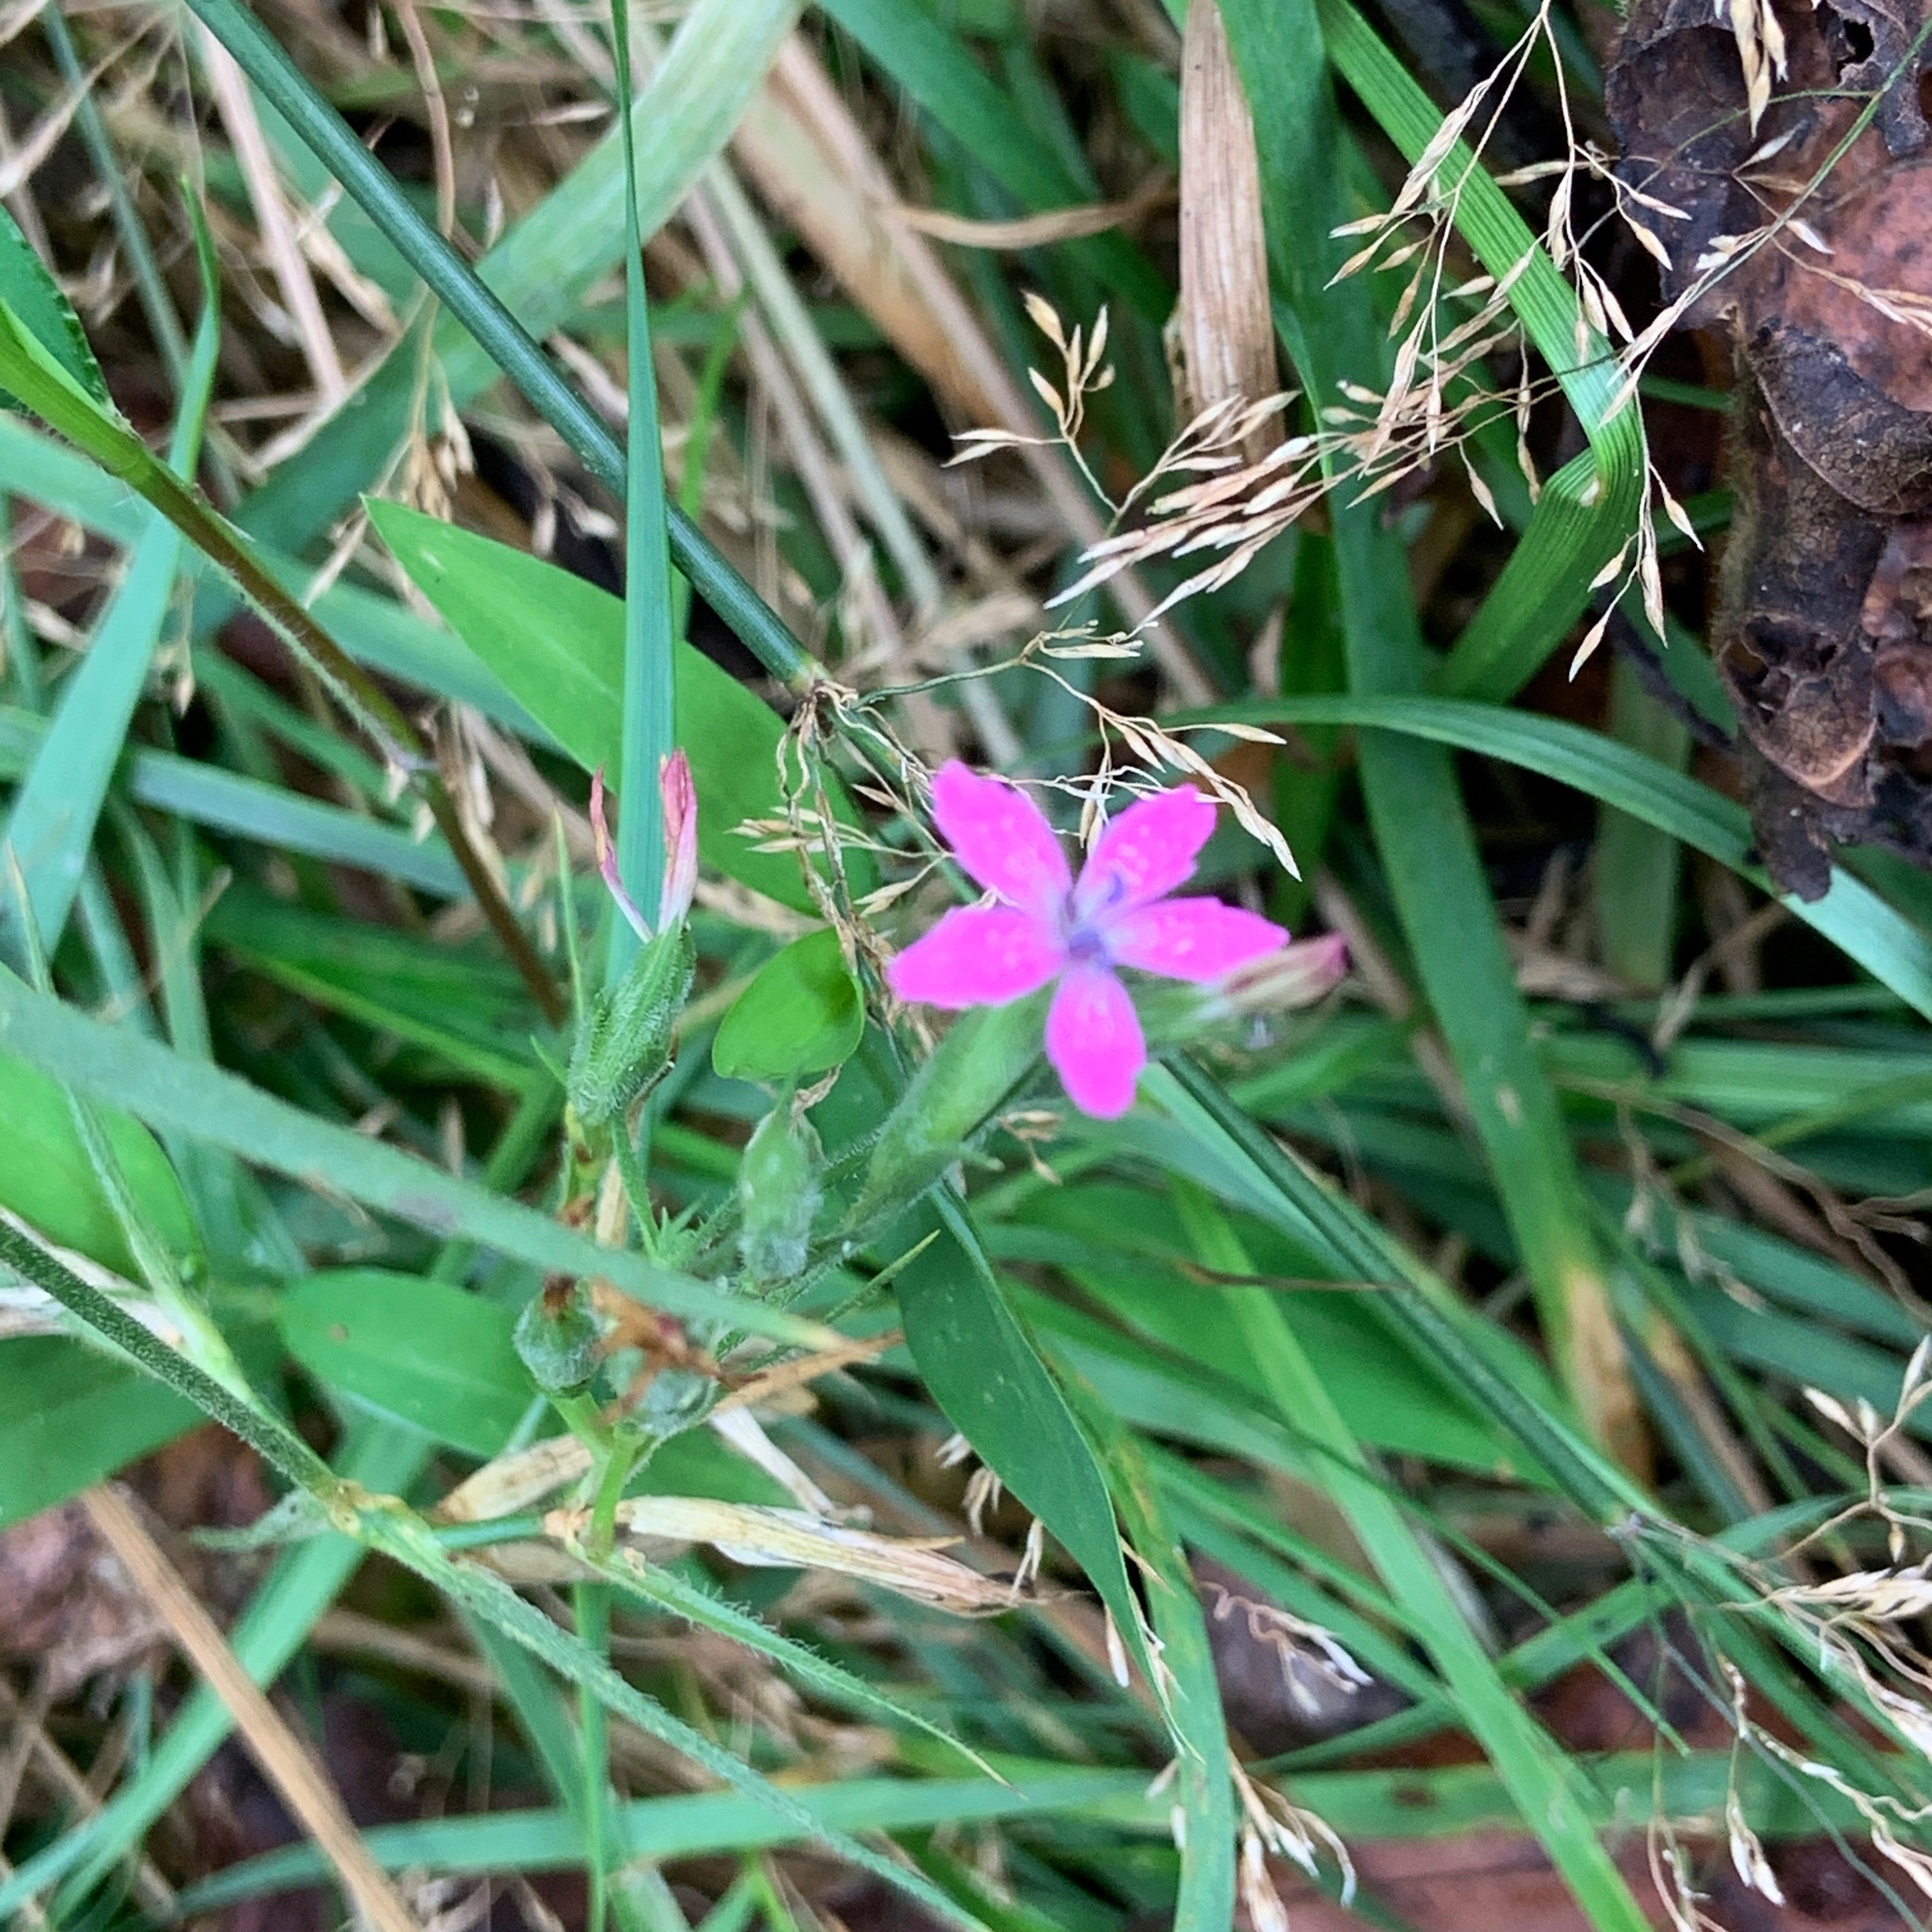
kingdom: Plantae
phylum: Tracheophyta
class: Magnoliopsida
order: Caryophyllales
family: Caryophyllaceae
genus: Dianthus
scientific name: Dianthus armeria
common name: Deptford pink
